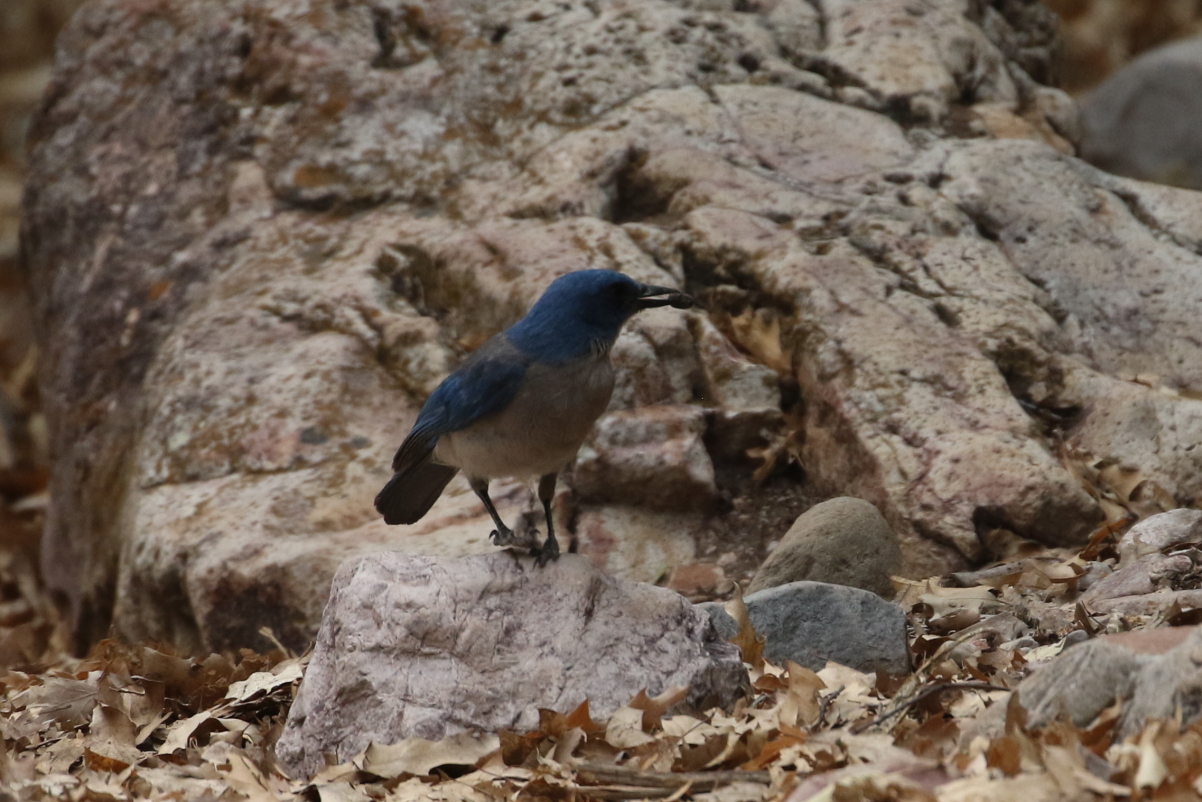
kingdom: Animalia
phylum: Chordata
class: Aves
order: Passeriformes
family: Corvidae
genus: Aphelocoma
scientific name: Aphelocoma wollweberi
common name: Mexican jay
